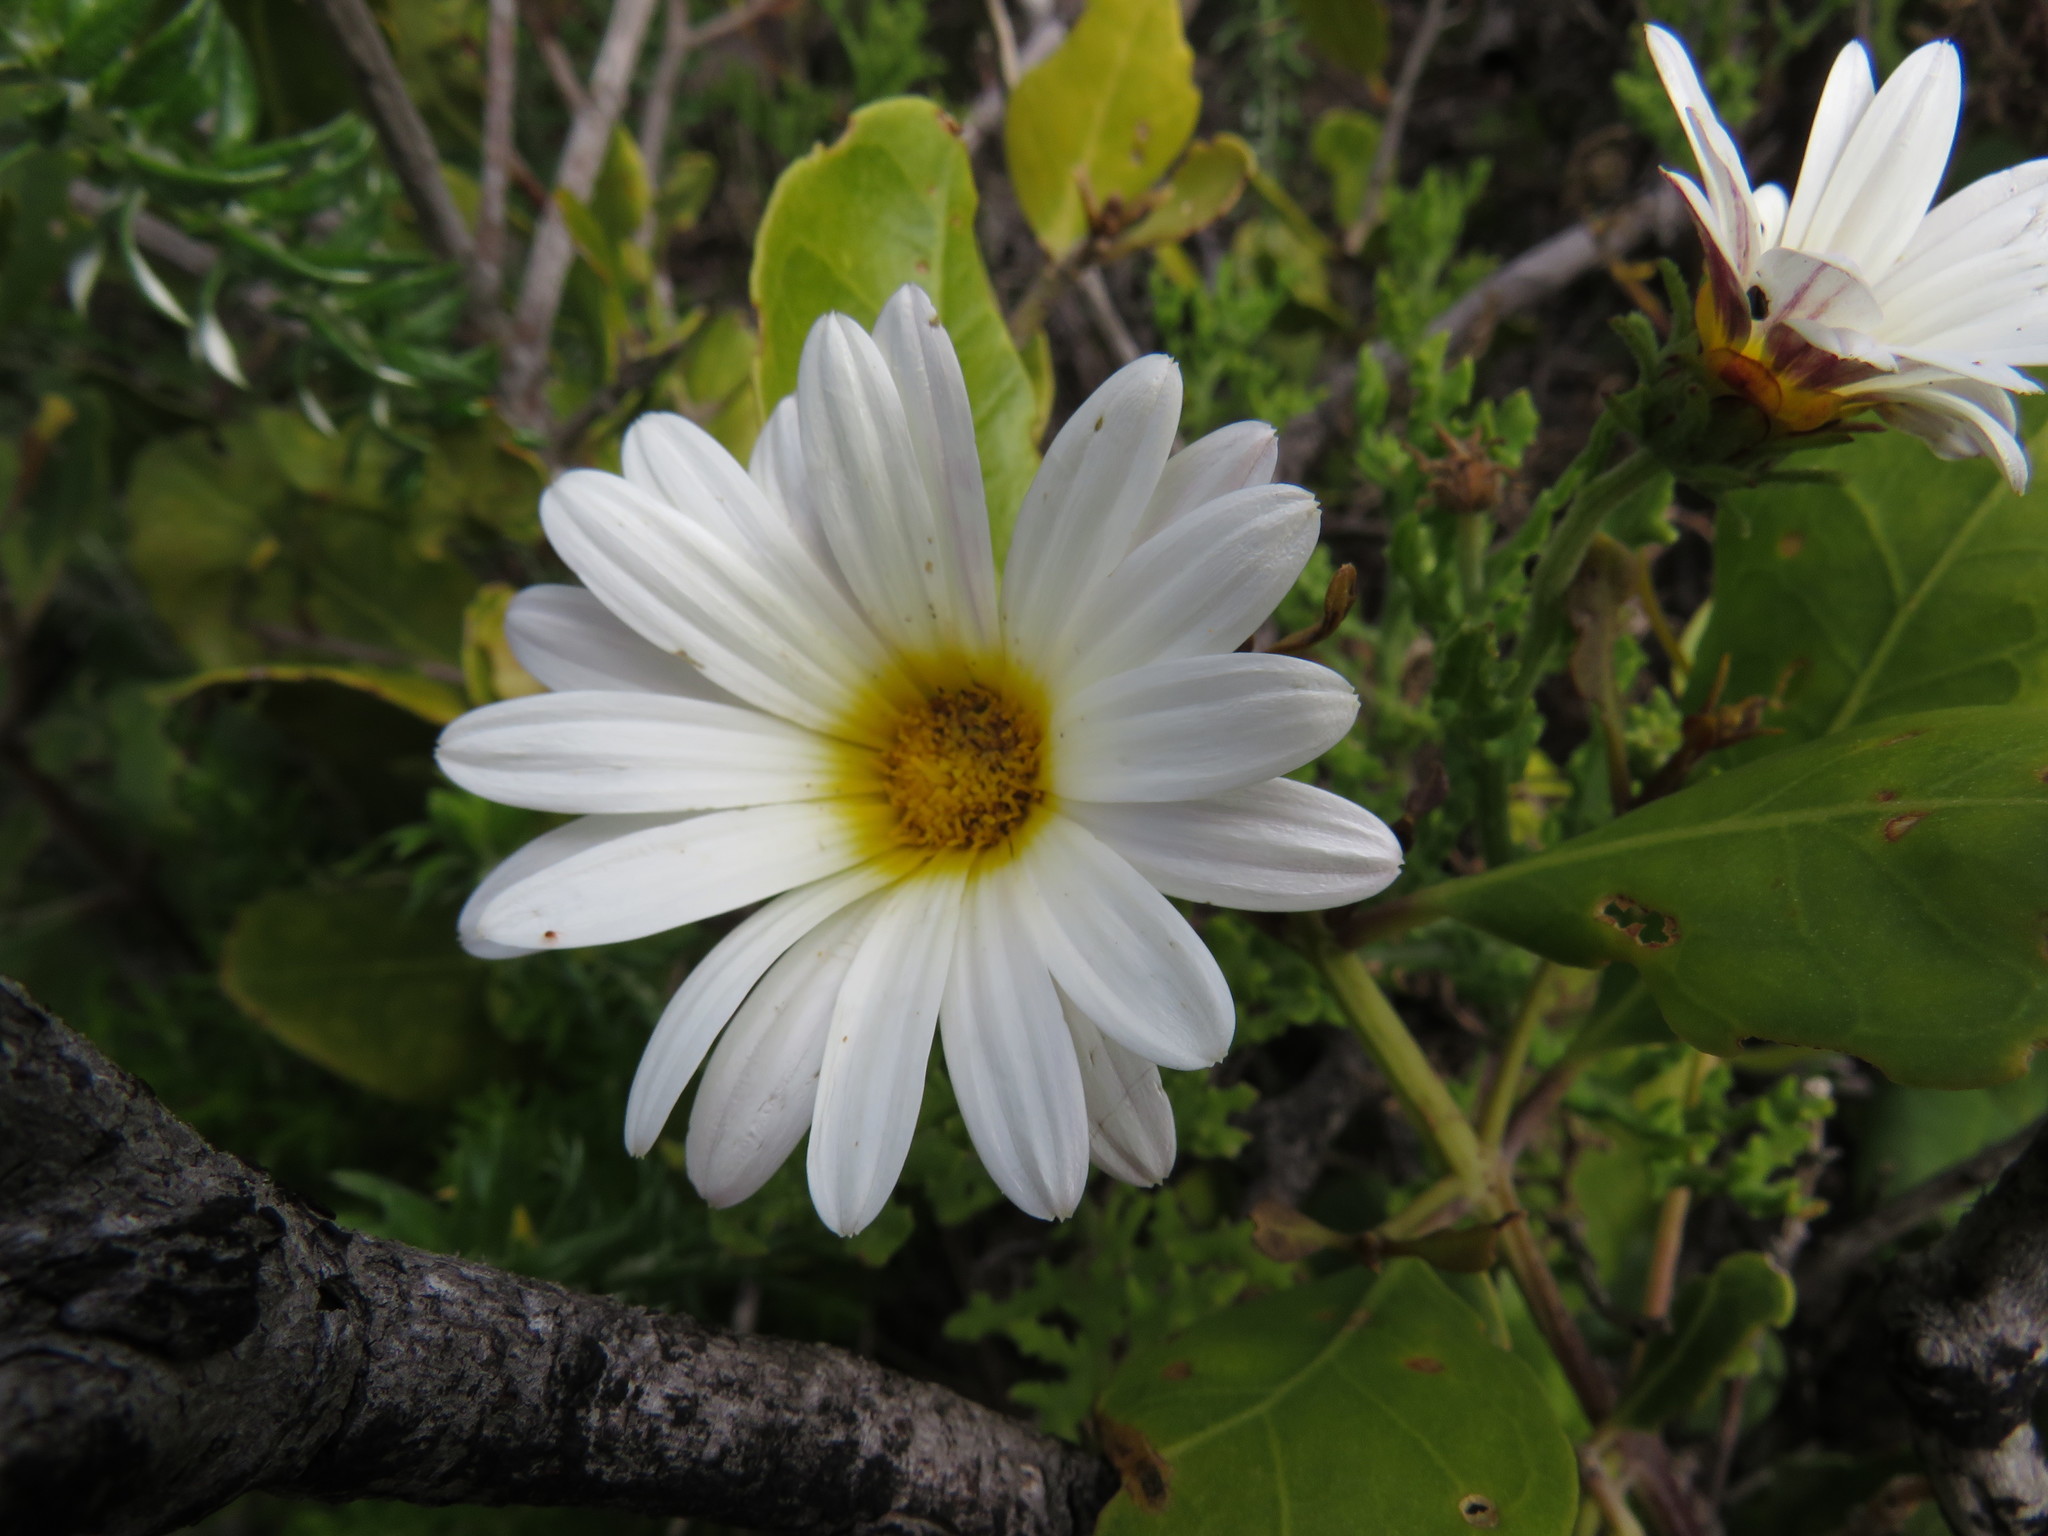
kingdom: Plantae
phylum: Tracheophyta
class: Magnoliopsida
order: Asterales
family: Asteraceae
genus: Arctotis
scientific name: Arctotis aspera
